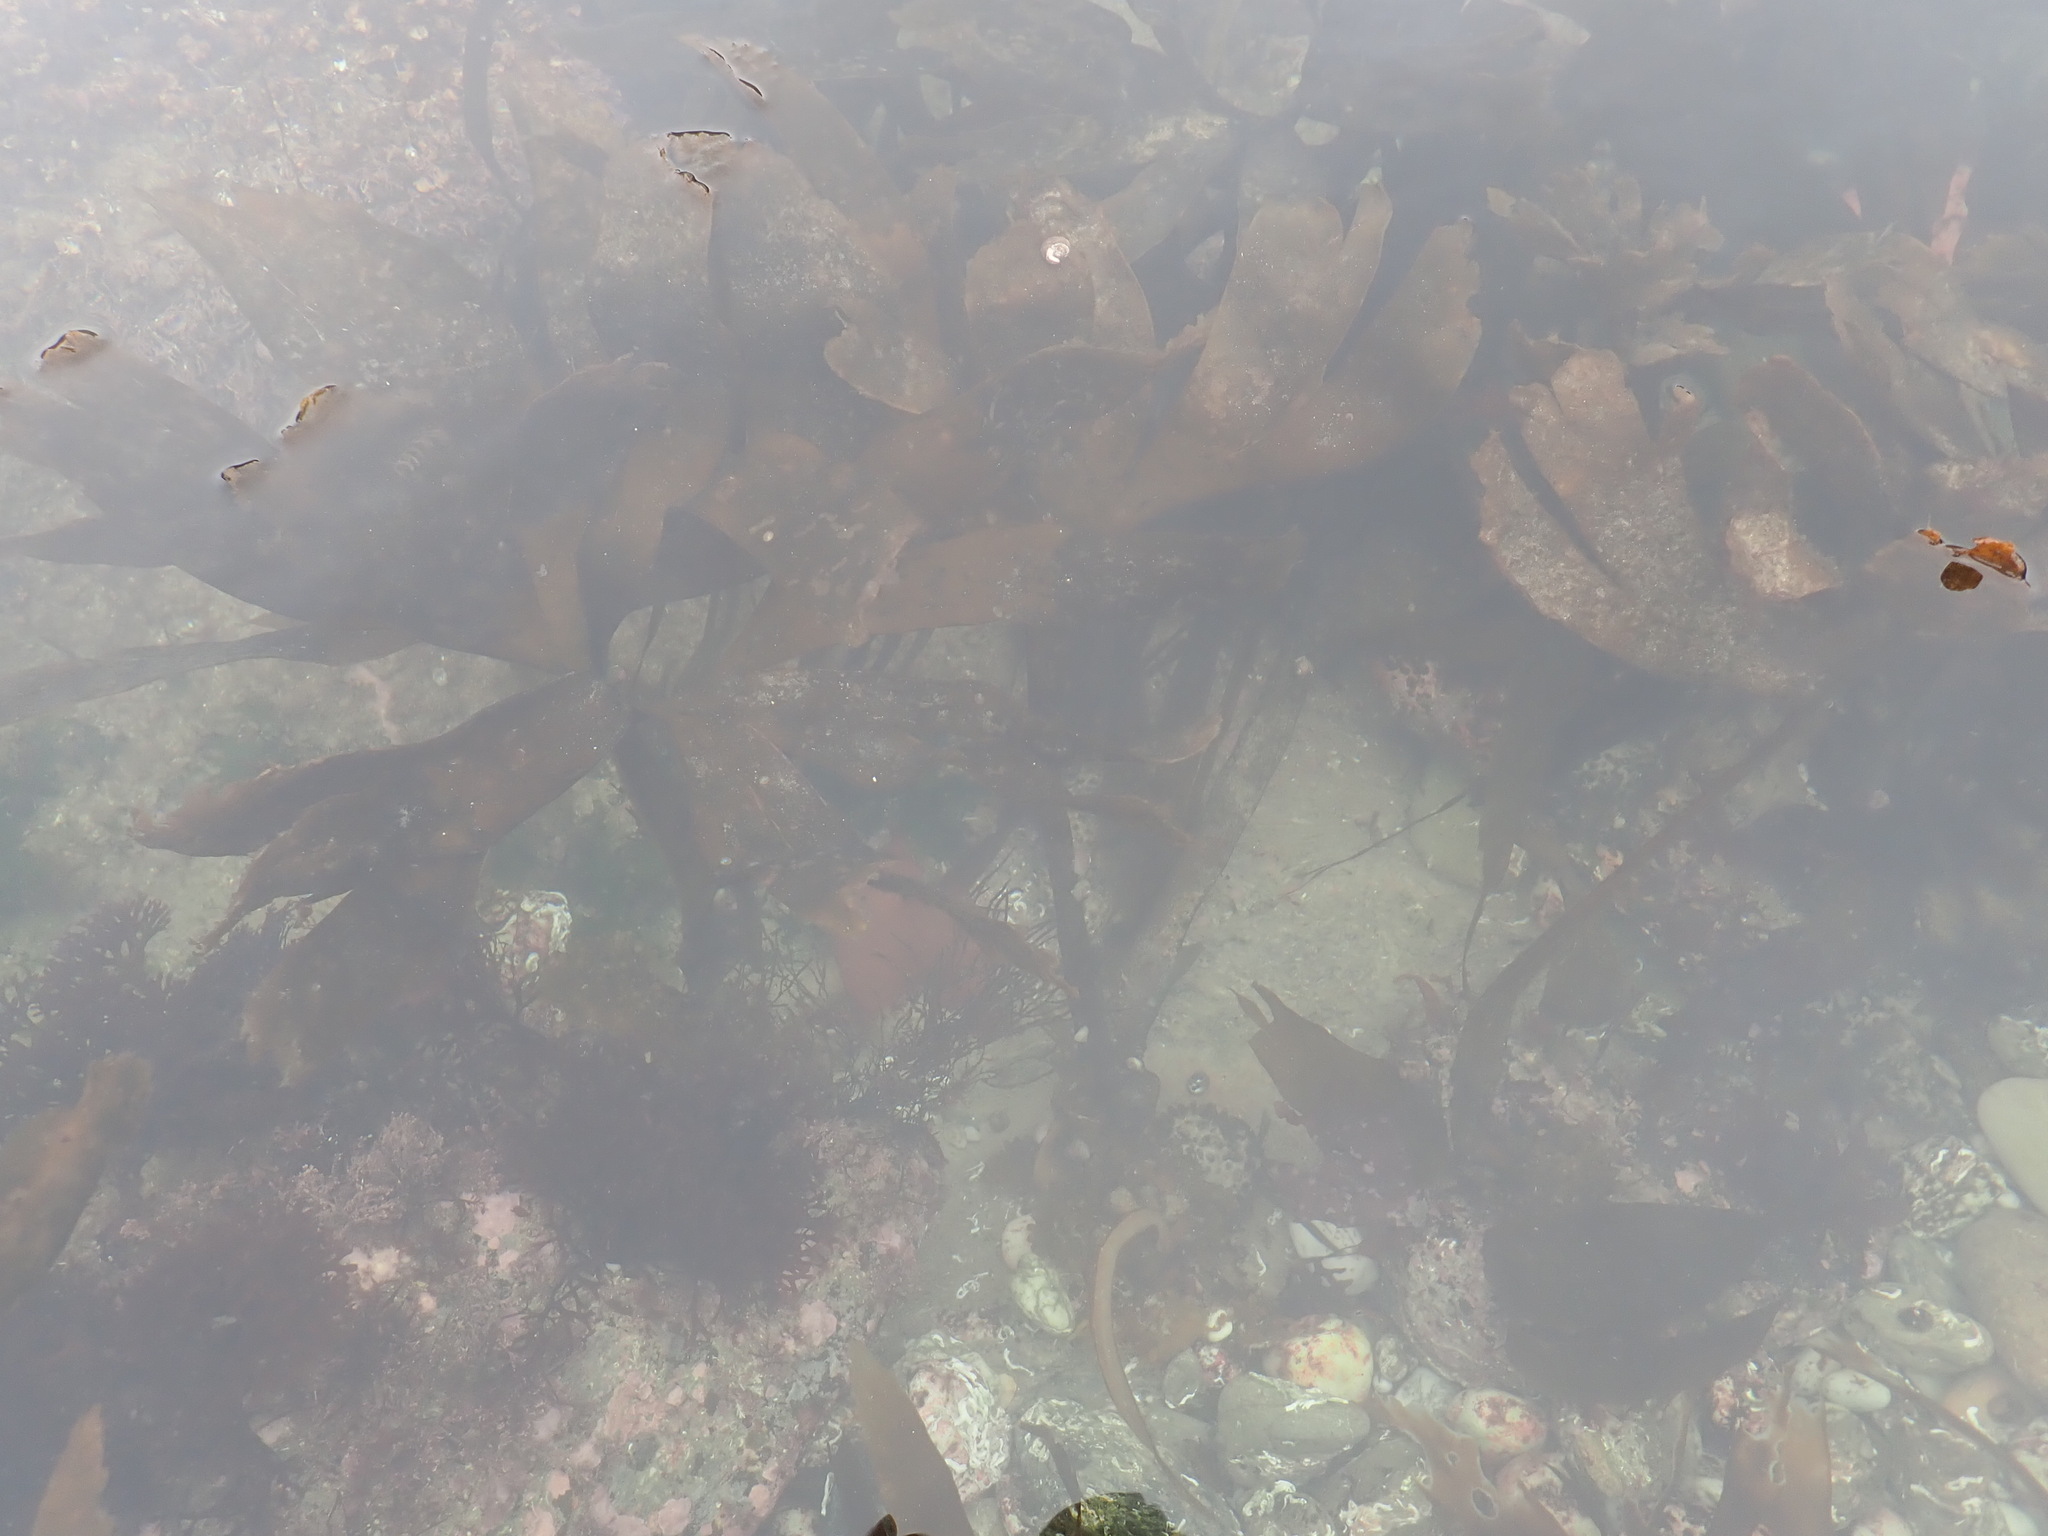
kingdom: Chromista
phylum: Ochrophyta
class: Phaeophyceae
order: Tilopteridales
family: Phyllariaceae
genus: Saccorhiza
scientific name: Saccorhiza polyschides
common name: Furbelows
